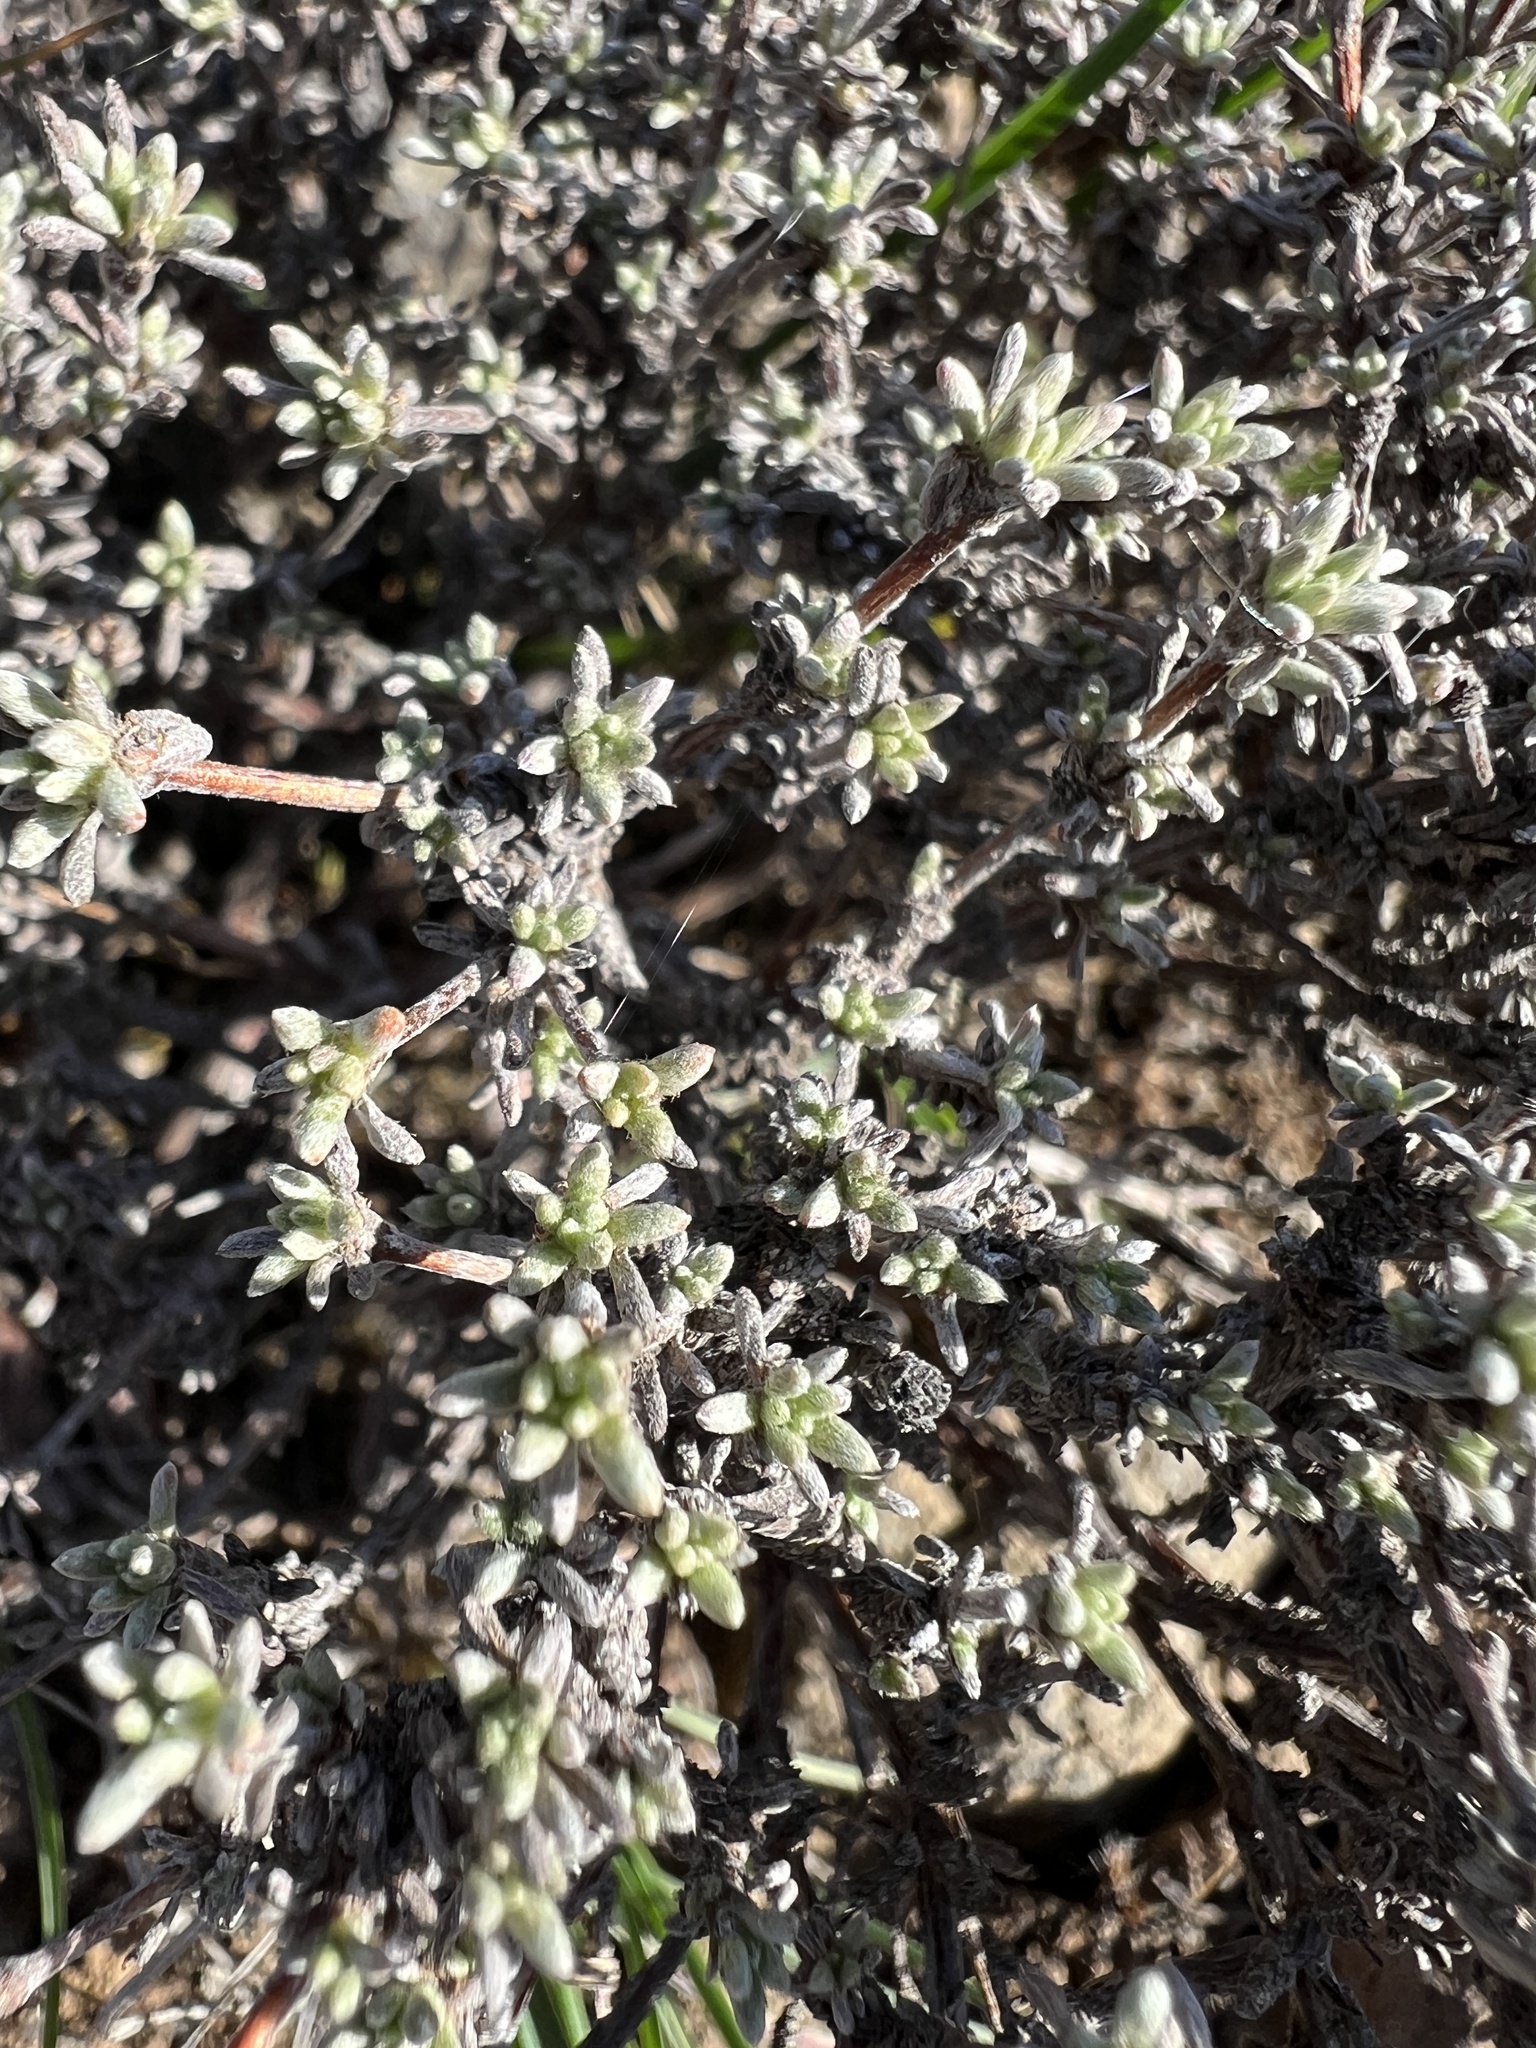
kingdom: Plantae
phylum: Tracheophyta
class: Magnoliopsida
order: Caryophyllales
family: Polygonaceae
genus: Eriogonum
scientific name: Eriogonum thymoides
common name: Thyme-leaf wild buckwheat
